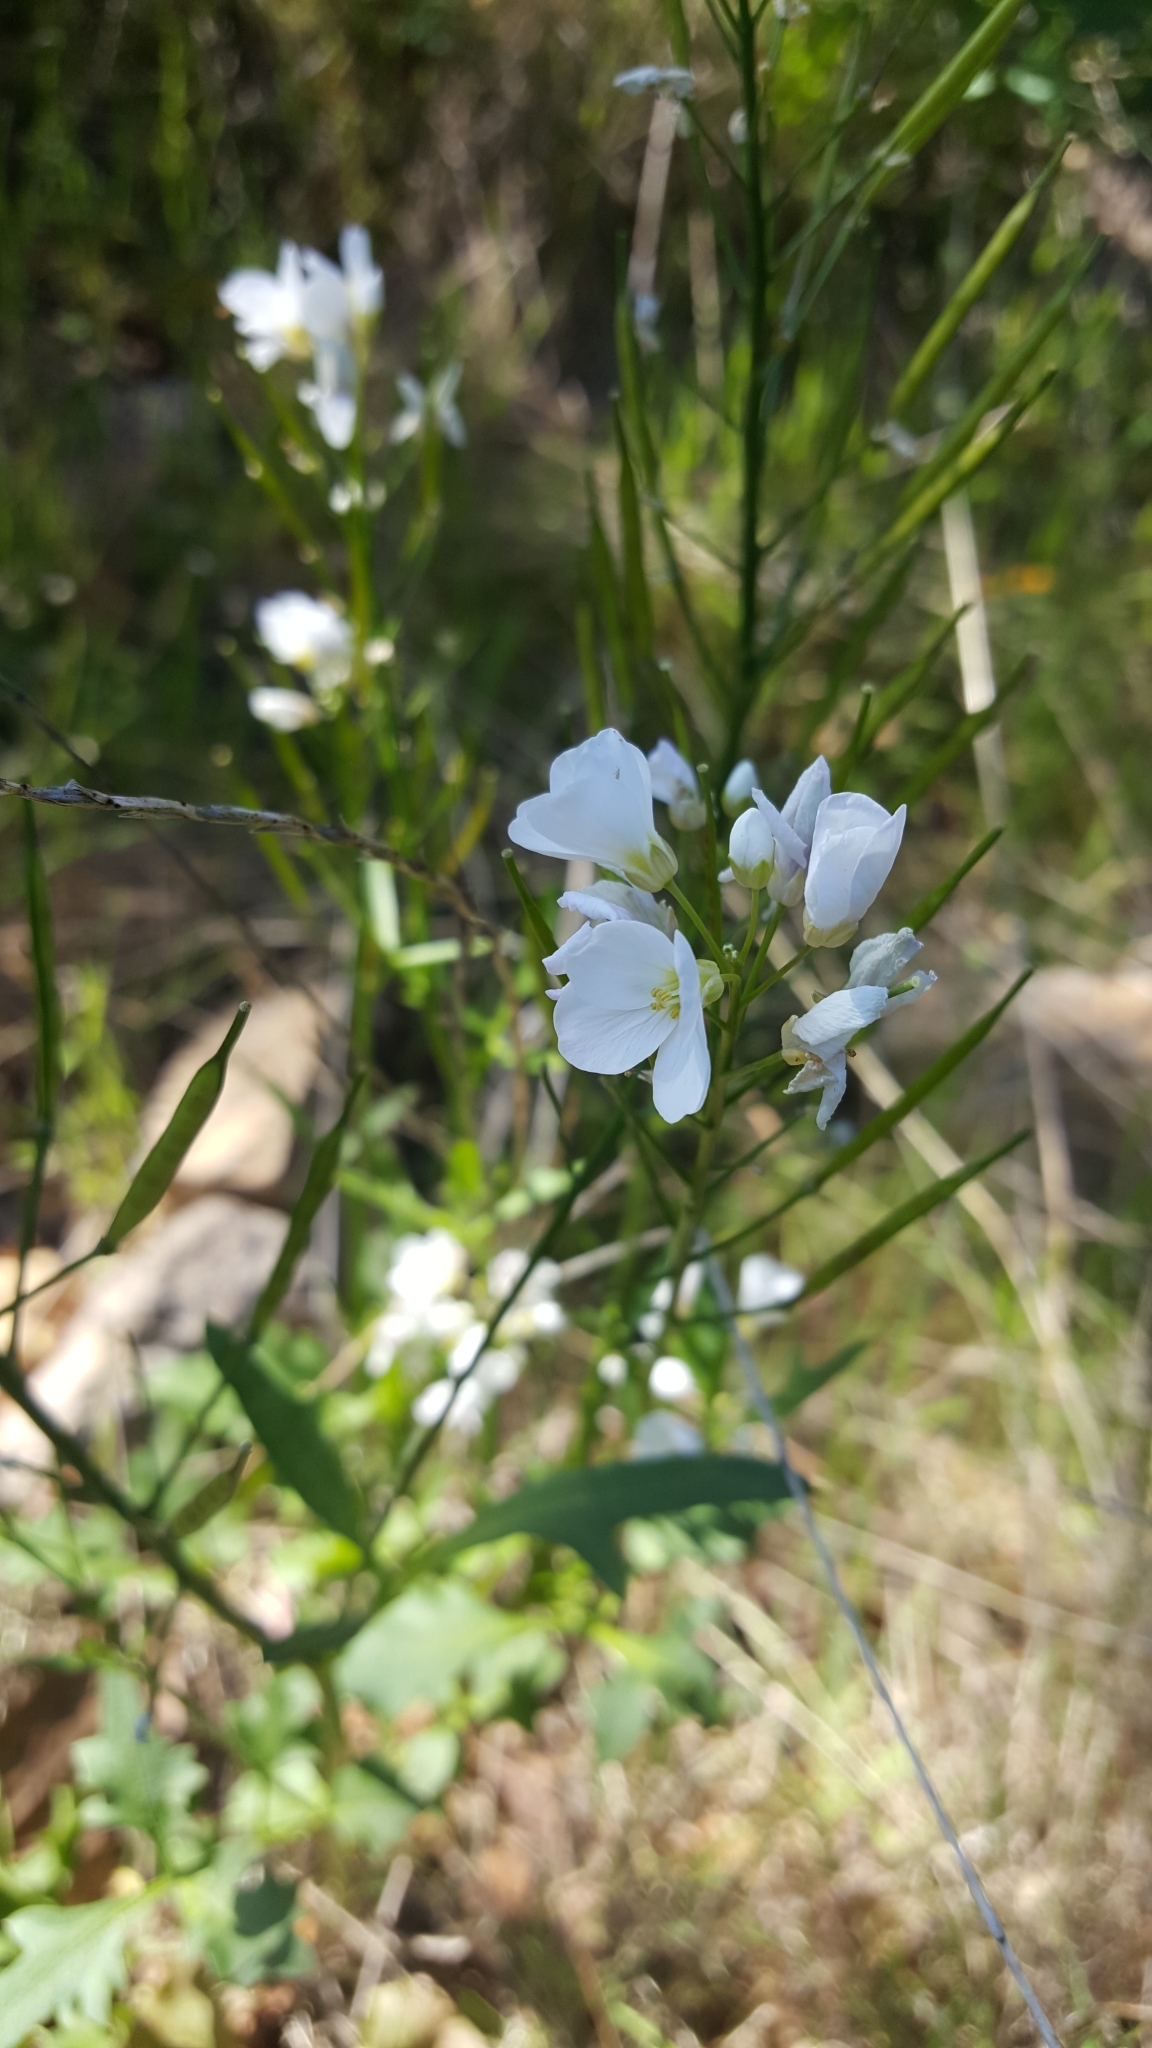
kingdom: Plantae
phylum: Tracheophyta
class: Magnoliopsida
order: Brassicales
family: Brassicaceae
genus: Cardamine
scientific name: Cardamine californica
